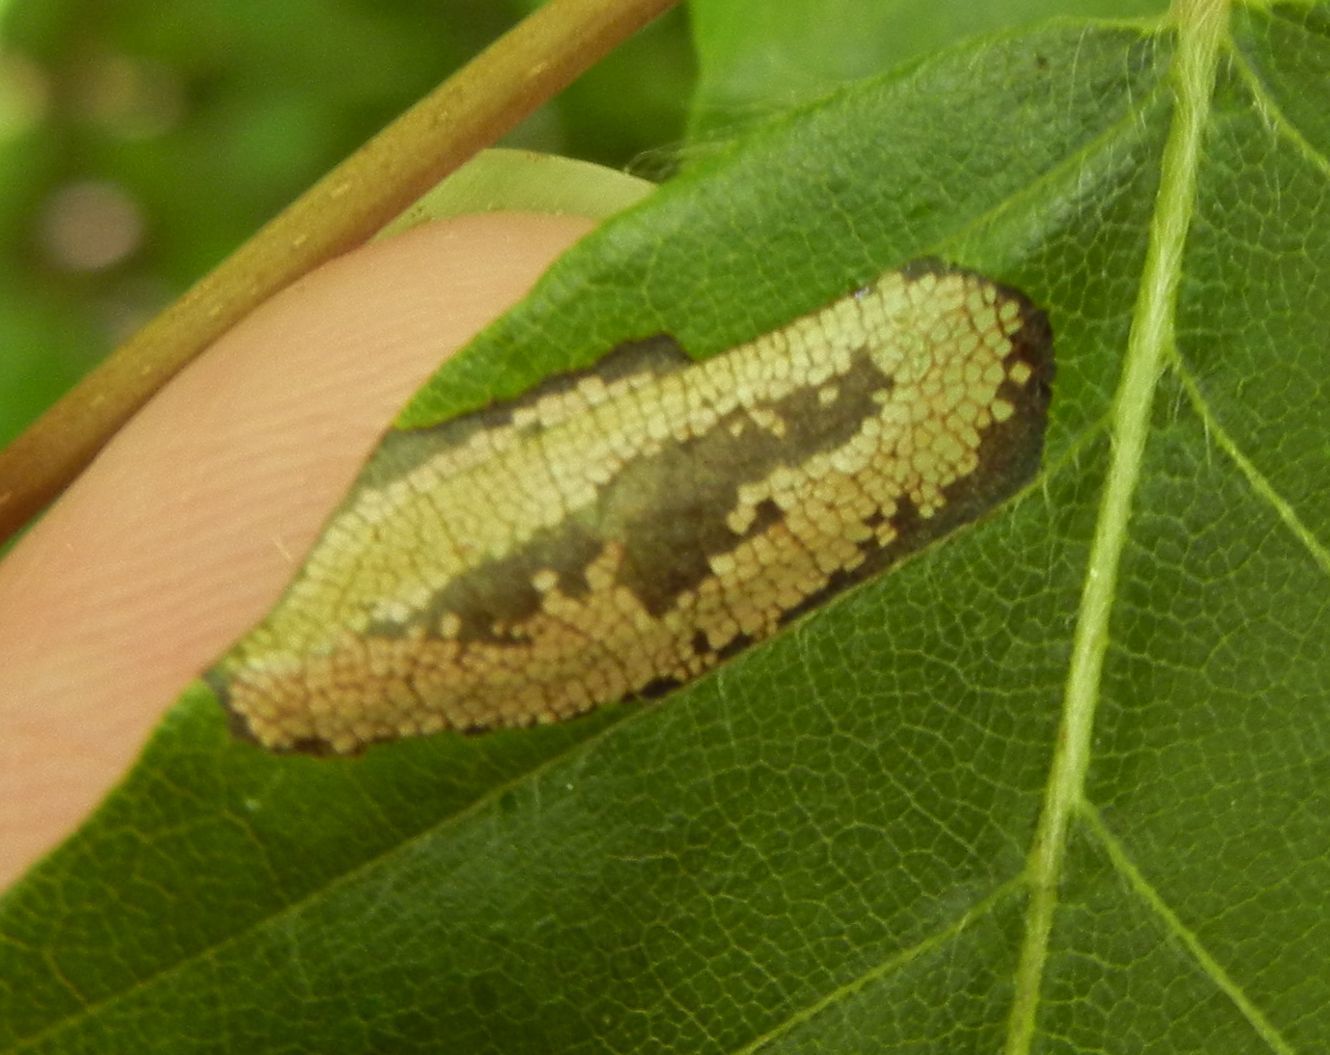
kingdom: Animalia
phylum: Arthropoda
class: Insecta
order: Lepidoptera
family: Gracillariidae
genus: Phyllonorycter
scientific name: Phyllonorycter maestingella
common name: Beech midget
